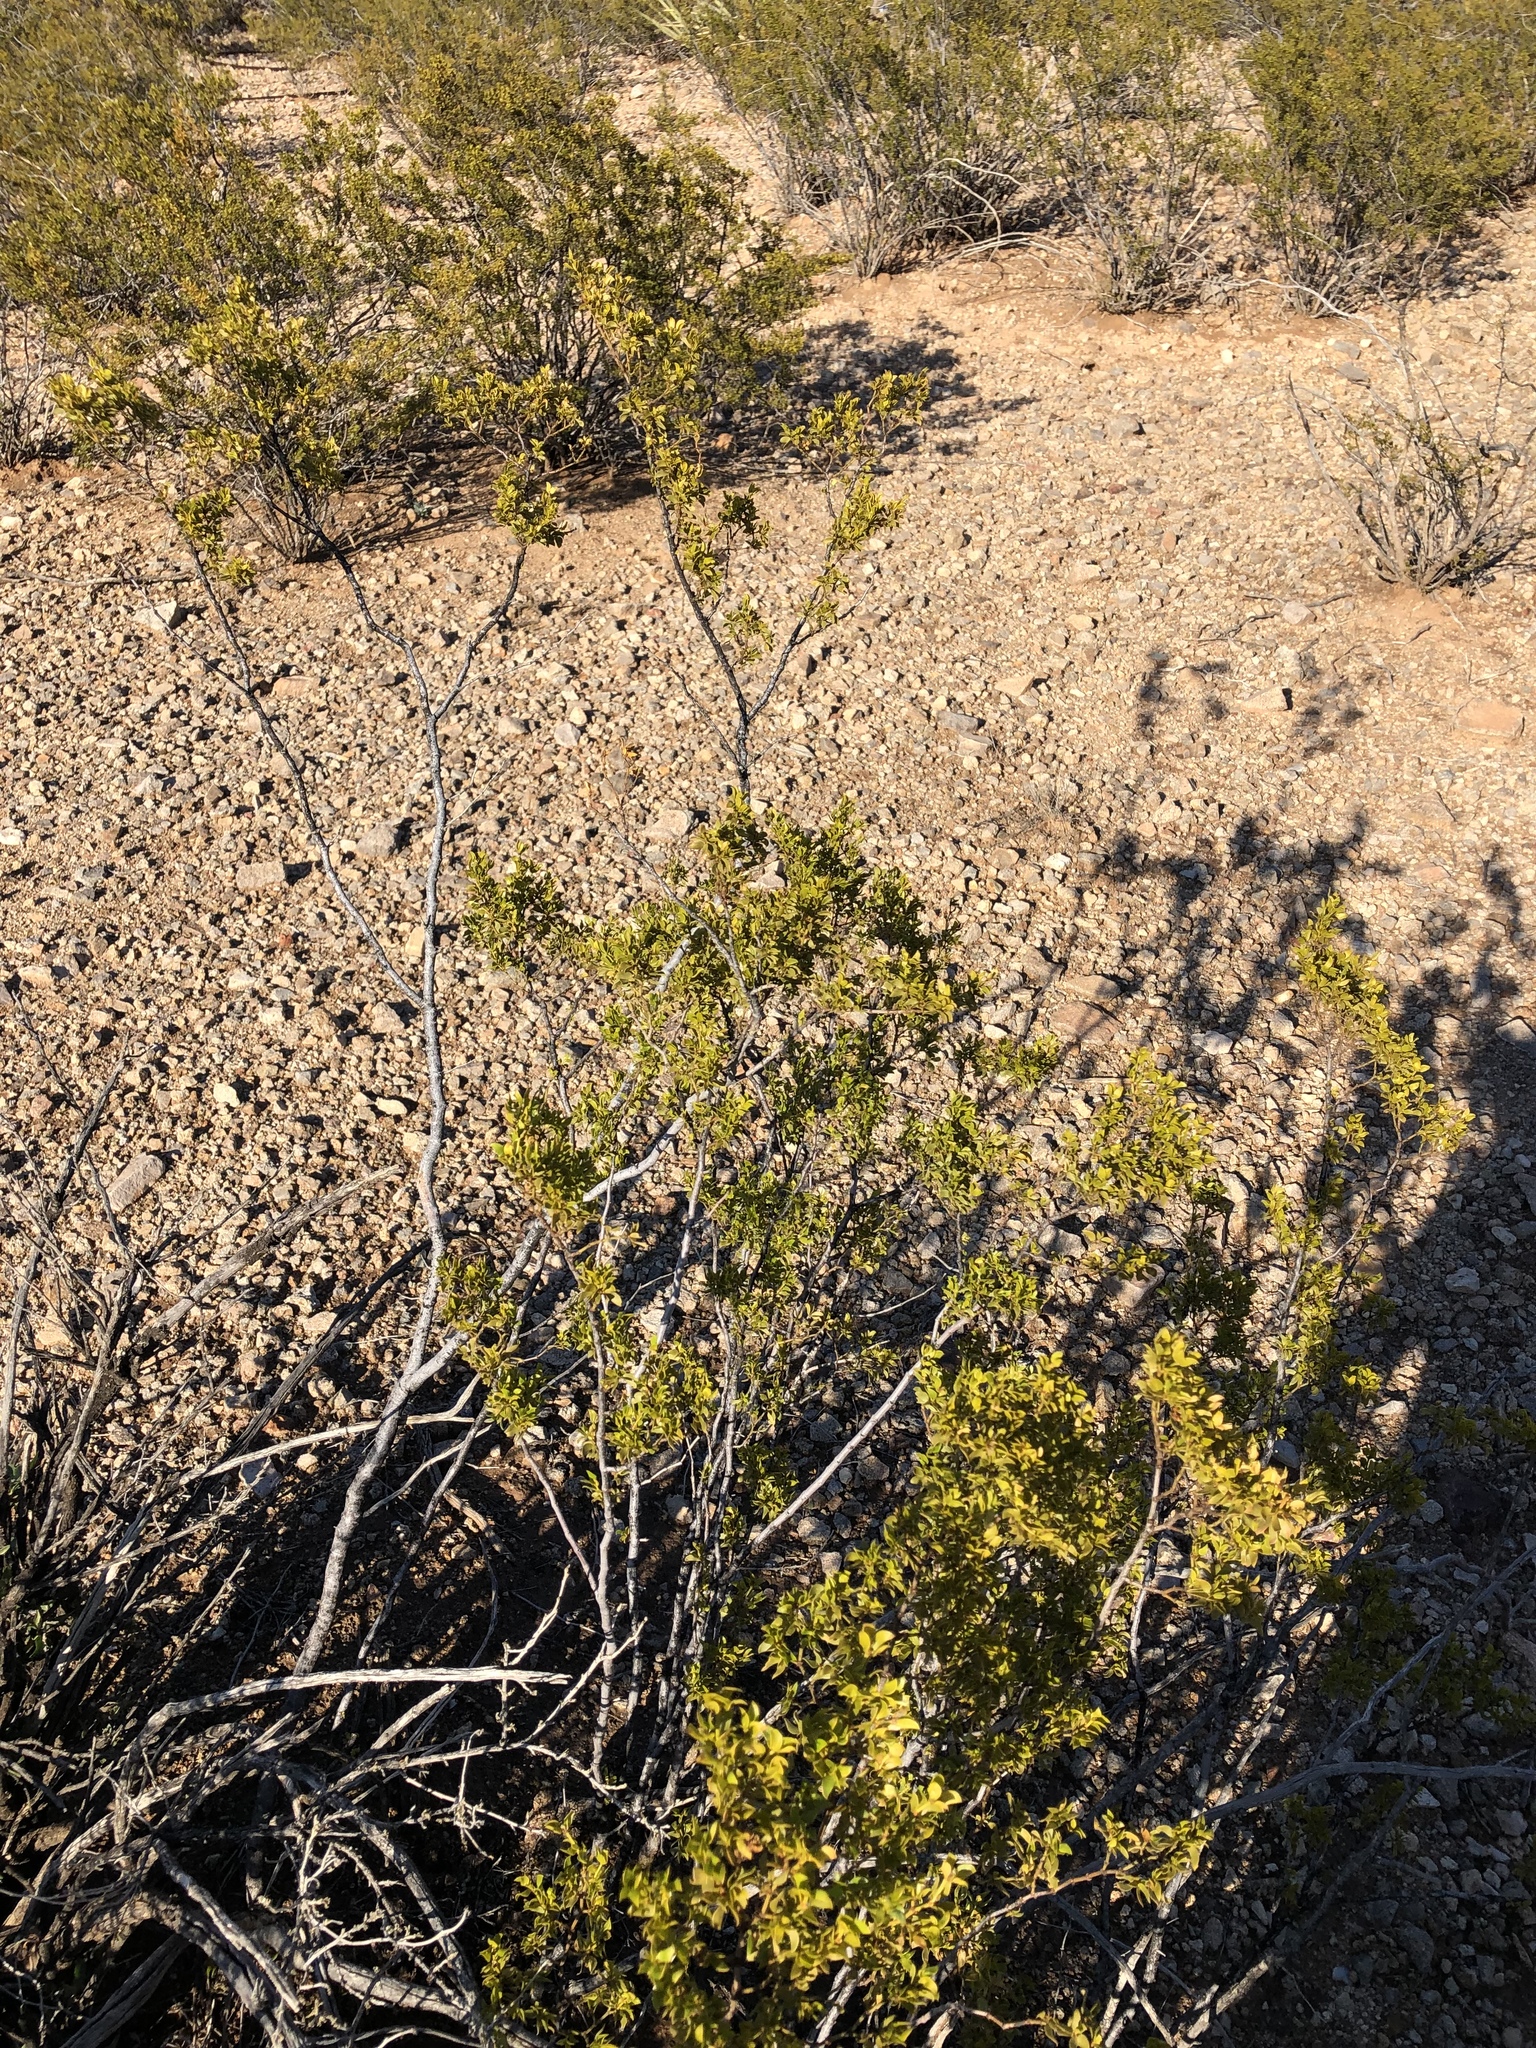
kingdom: Plantae
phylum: Tracheophyta
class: Magnoliopsida
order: Zygophyllales
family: Zygophyllaceae
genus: Larrea
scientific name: Larrea tridentata
